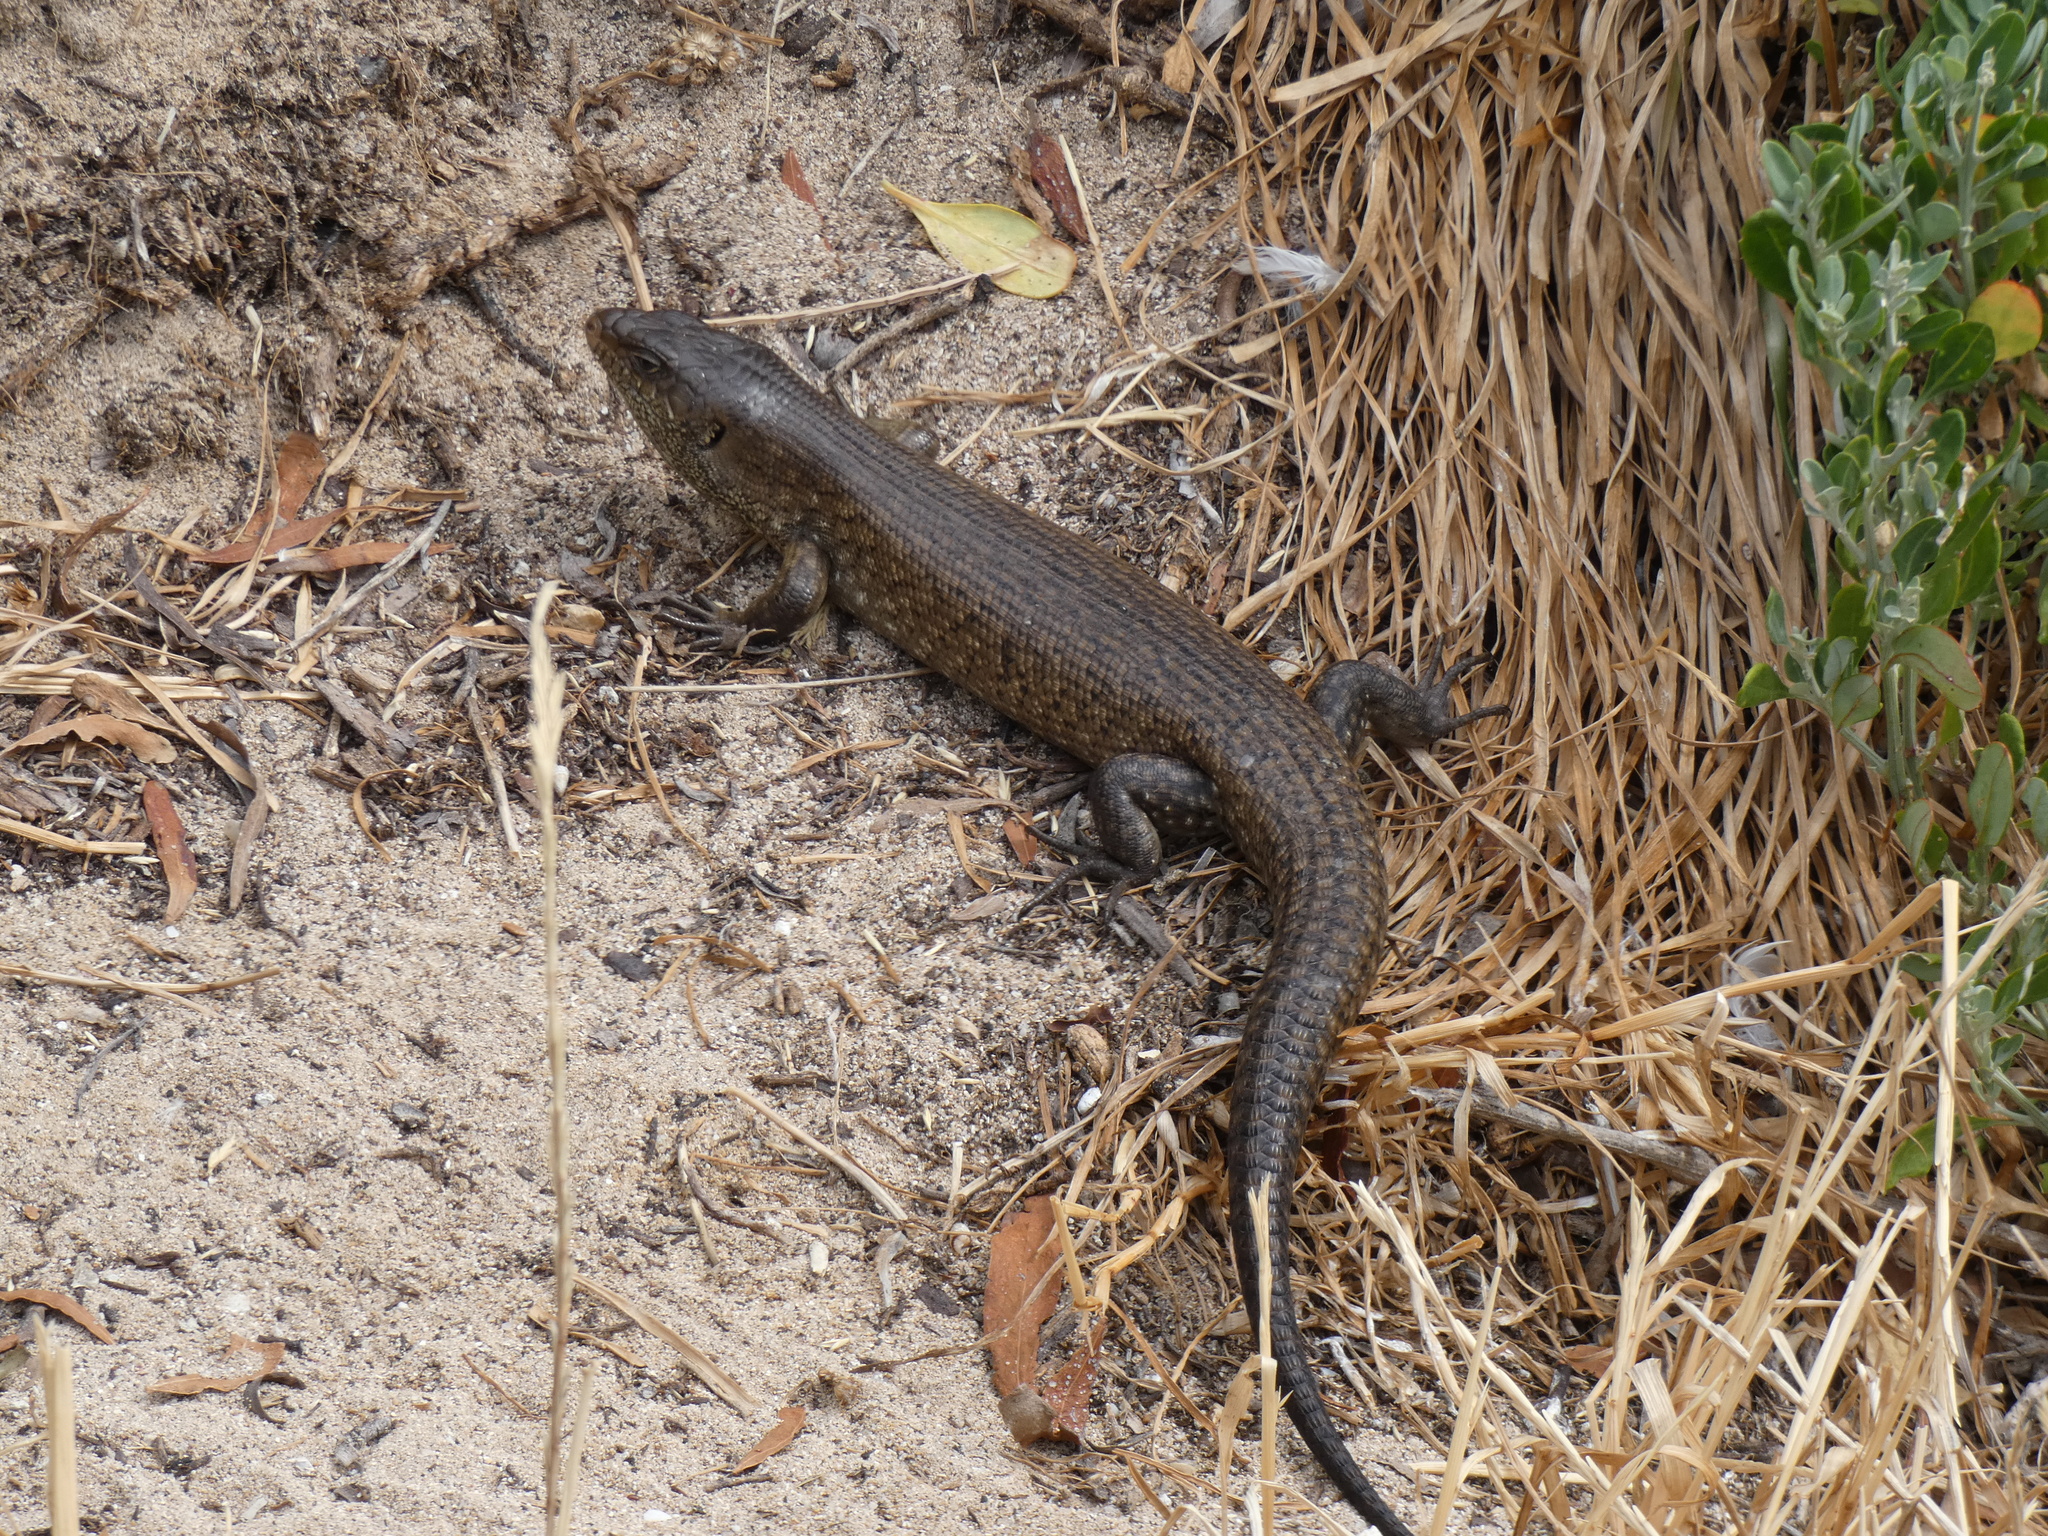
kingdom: Animalia
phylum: Chordata
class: Squamata
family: Scincidae
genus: Egernia
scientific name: Egernia kingii
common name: King's skink
